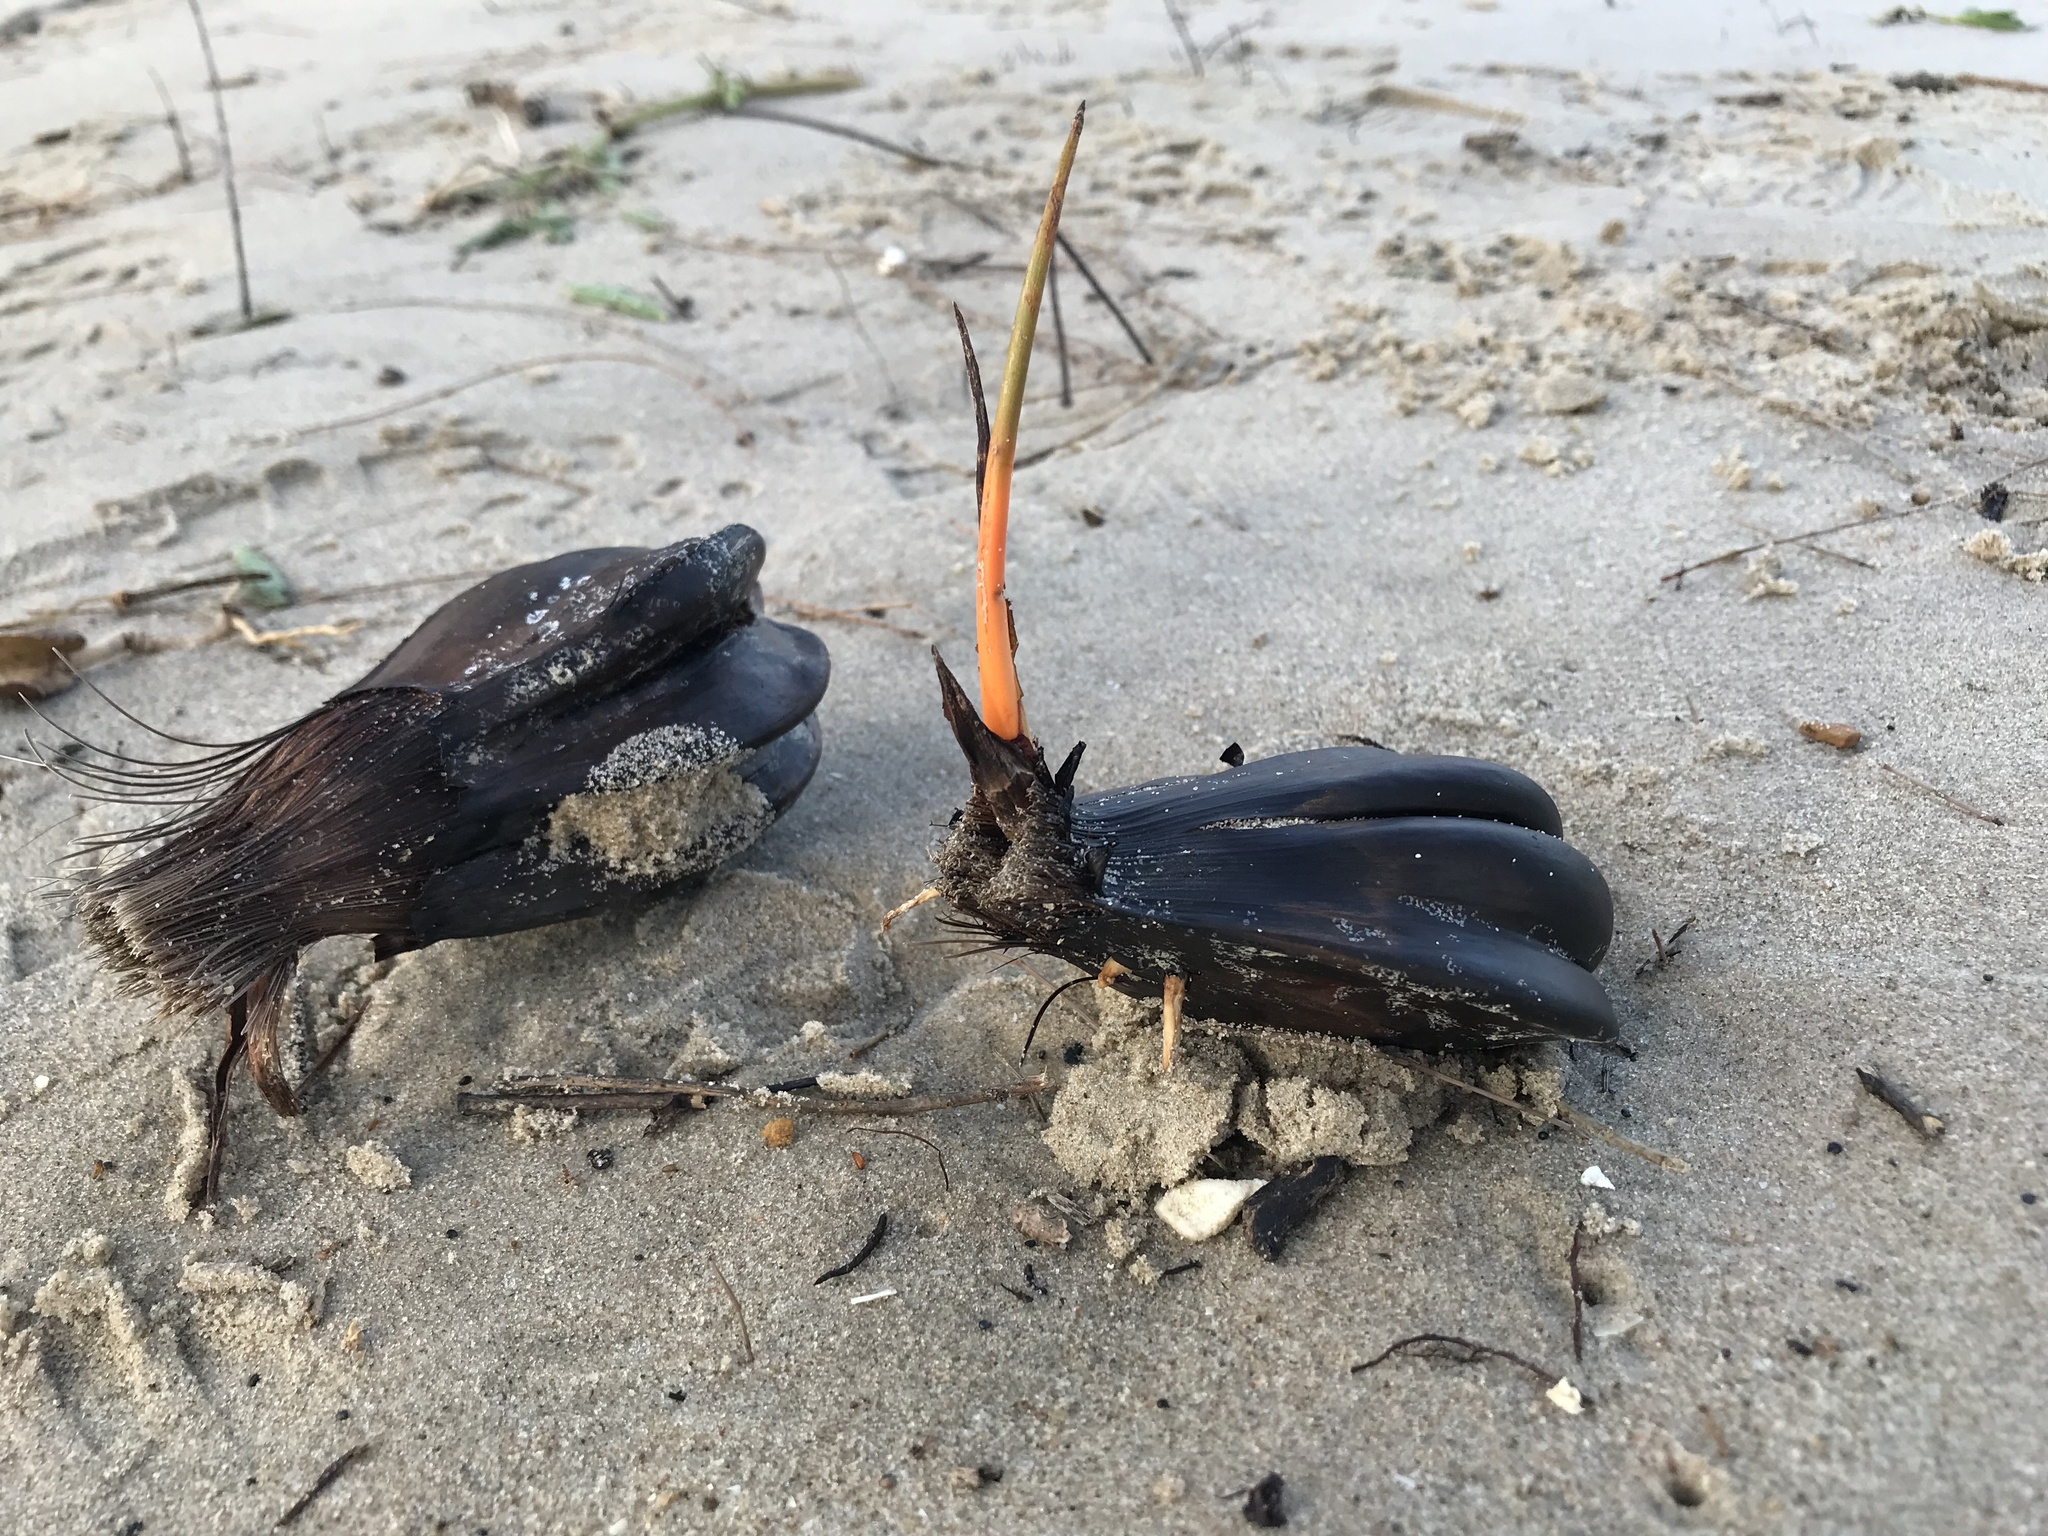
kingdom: Plantae
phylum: Tracheophyta
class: Liliopsida
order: Arecales
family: Arecaceae
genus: Nypa
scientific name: Nypa fruticans
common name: Mangrove palm
